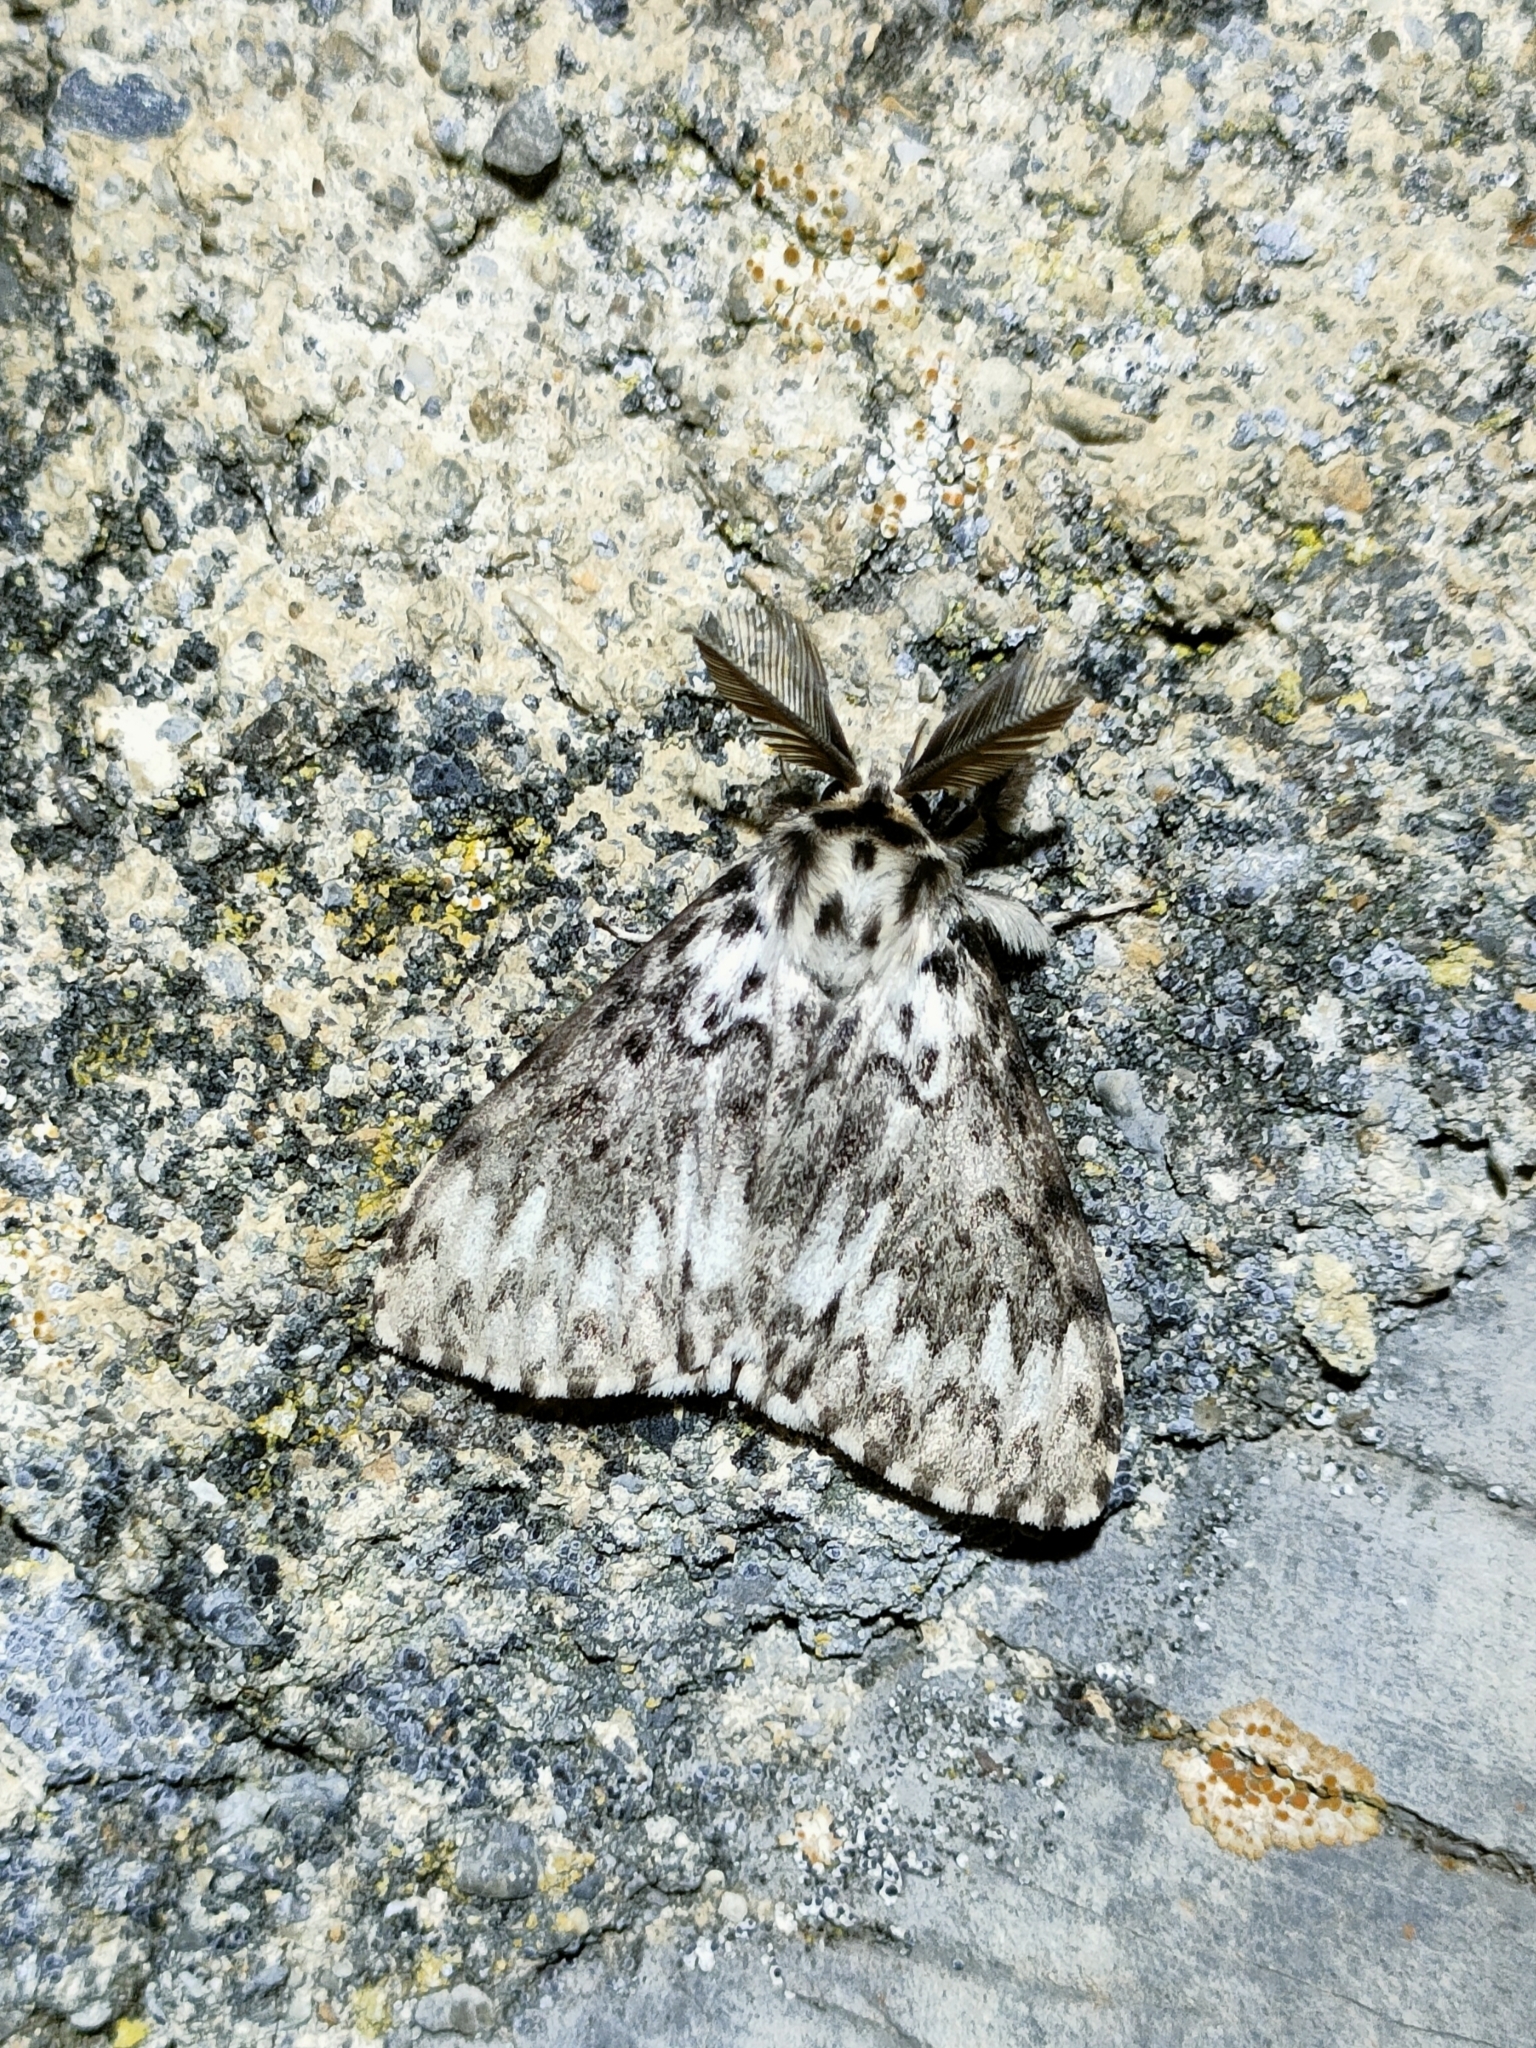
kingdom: Animalia
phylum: Arthropoda
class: Insecta
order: Lepidoptera
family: Erebidae
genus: Lymantria
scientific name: Lymantria monacha
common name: Black arches
